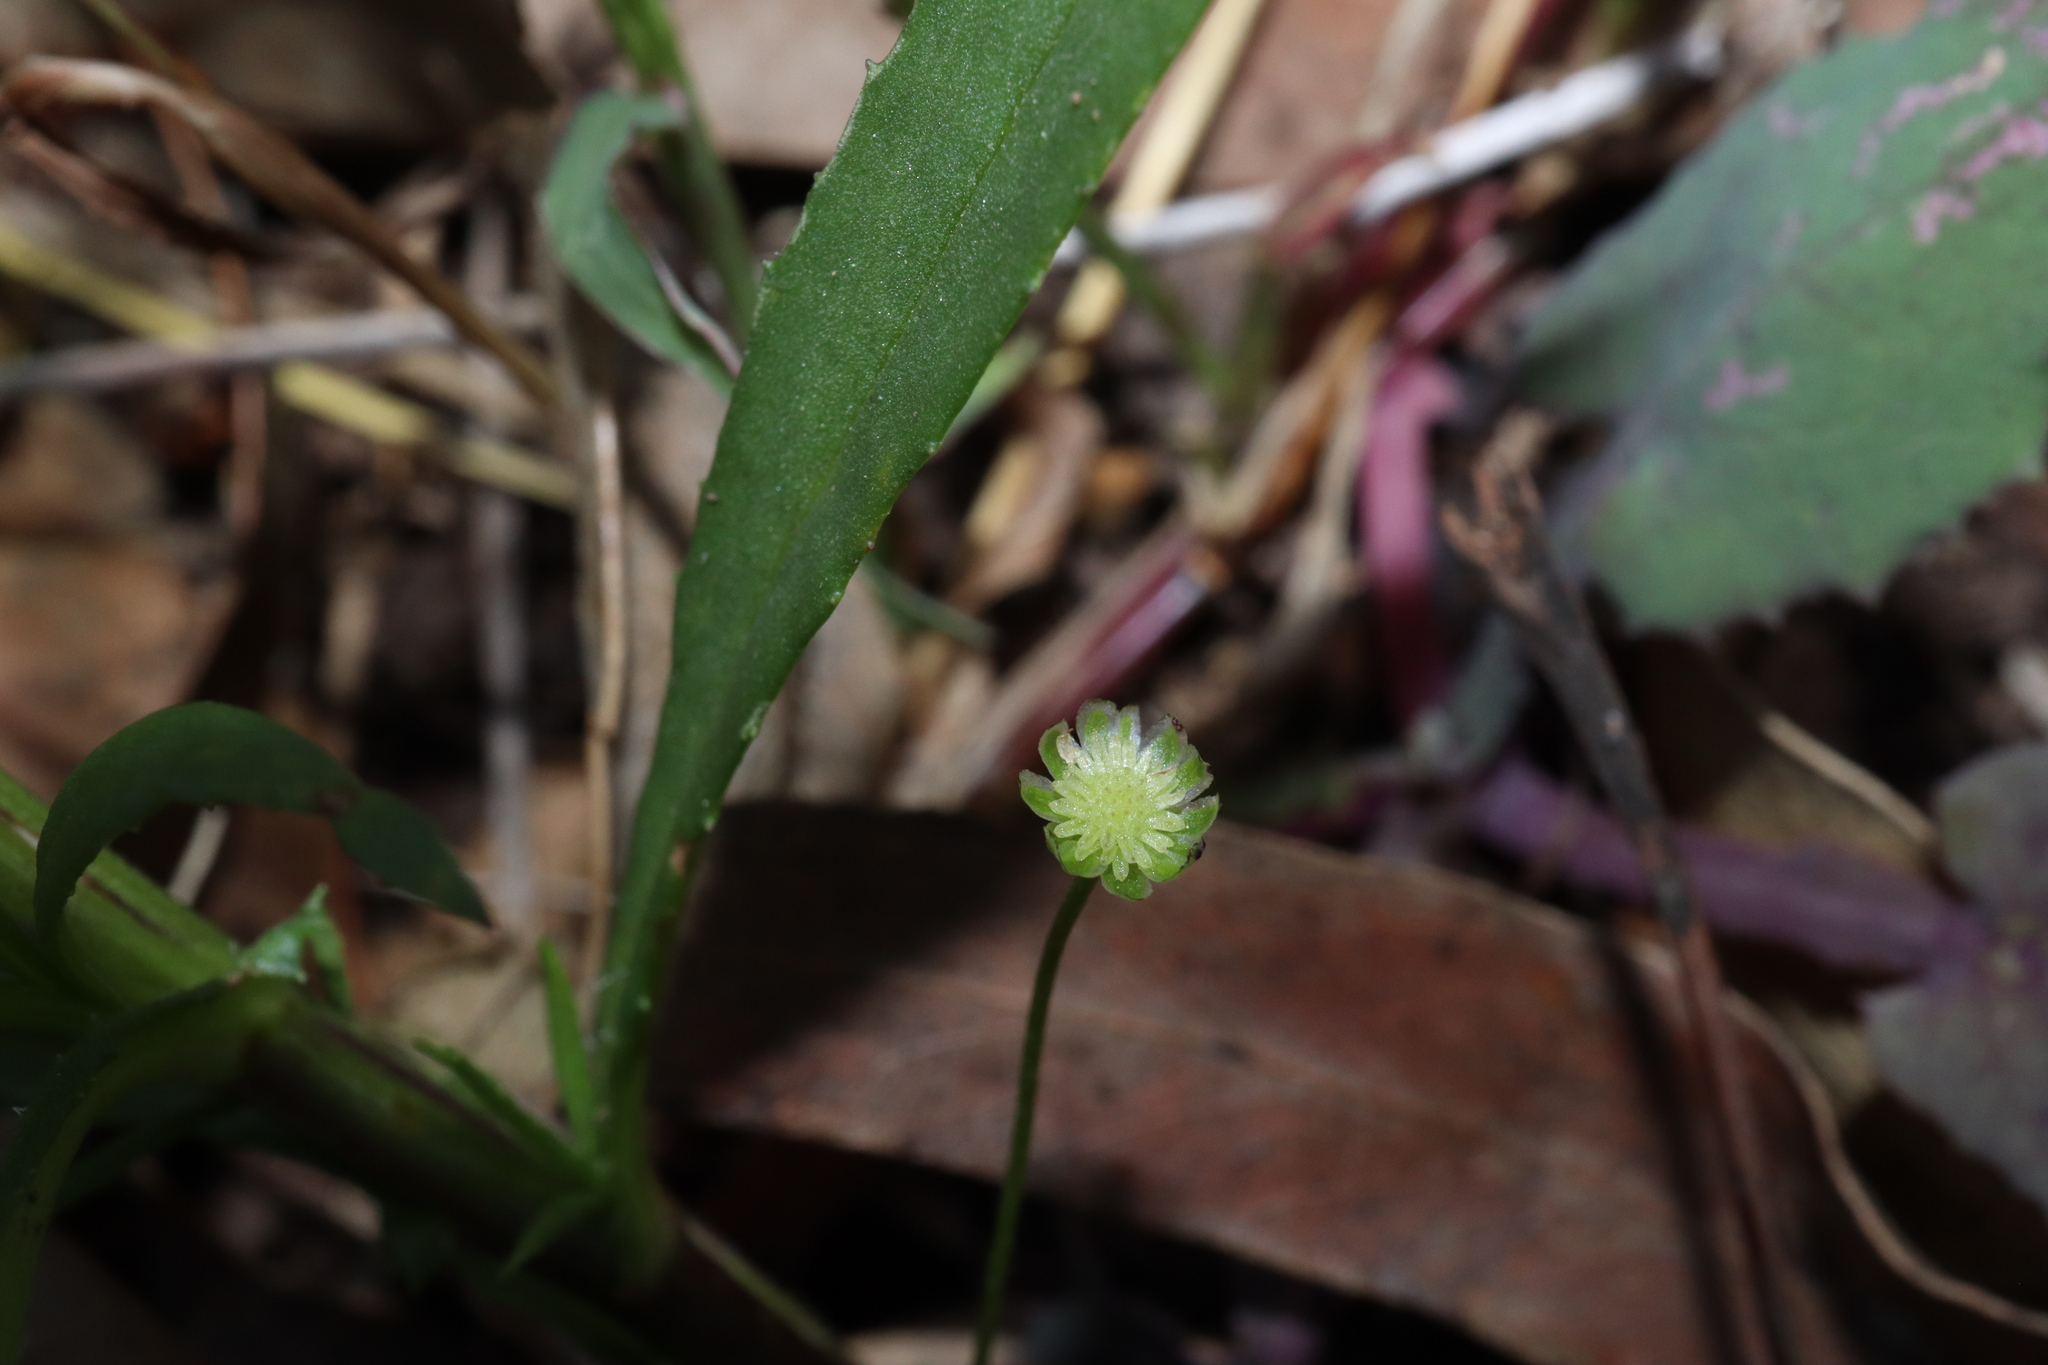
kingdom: Plantae
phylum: Tracheophyta
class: Magnoliopsida
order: Asterales
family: Asteraceae
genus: Cotula
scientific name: Cotula australis
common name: Australian waterbuttons
